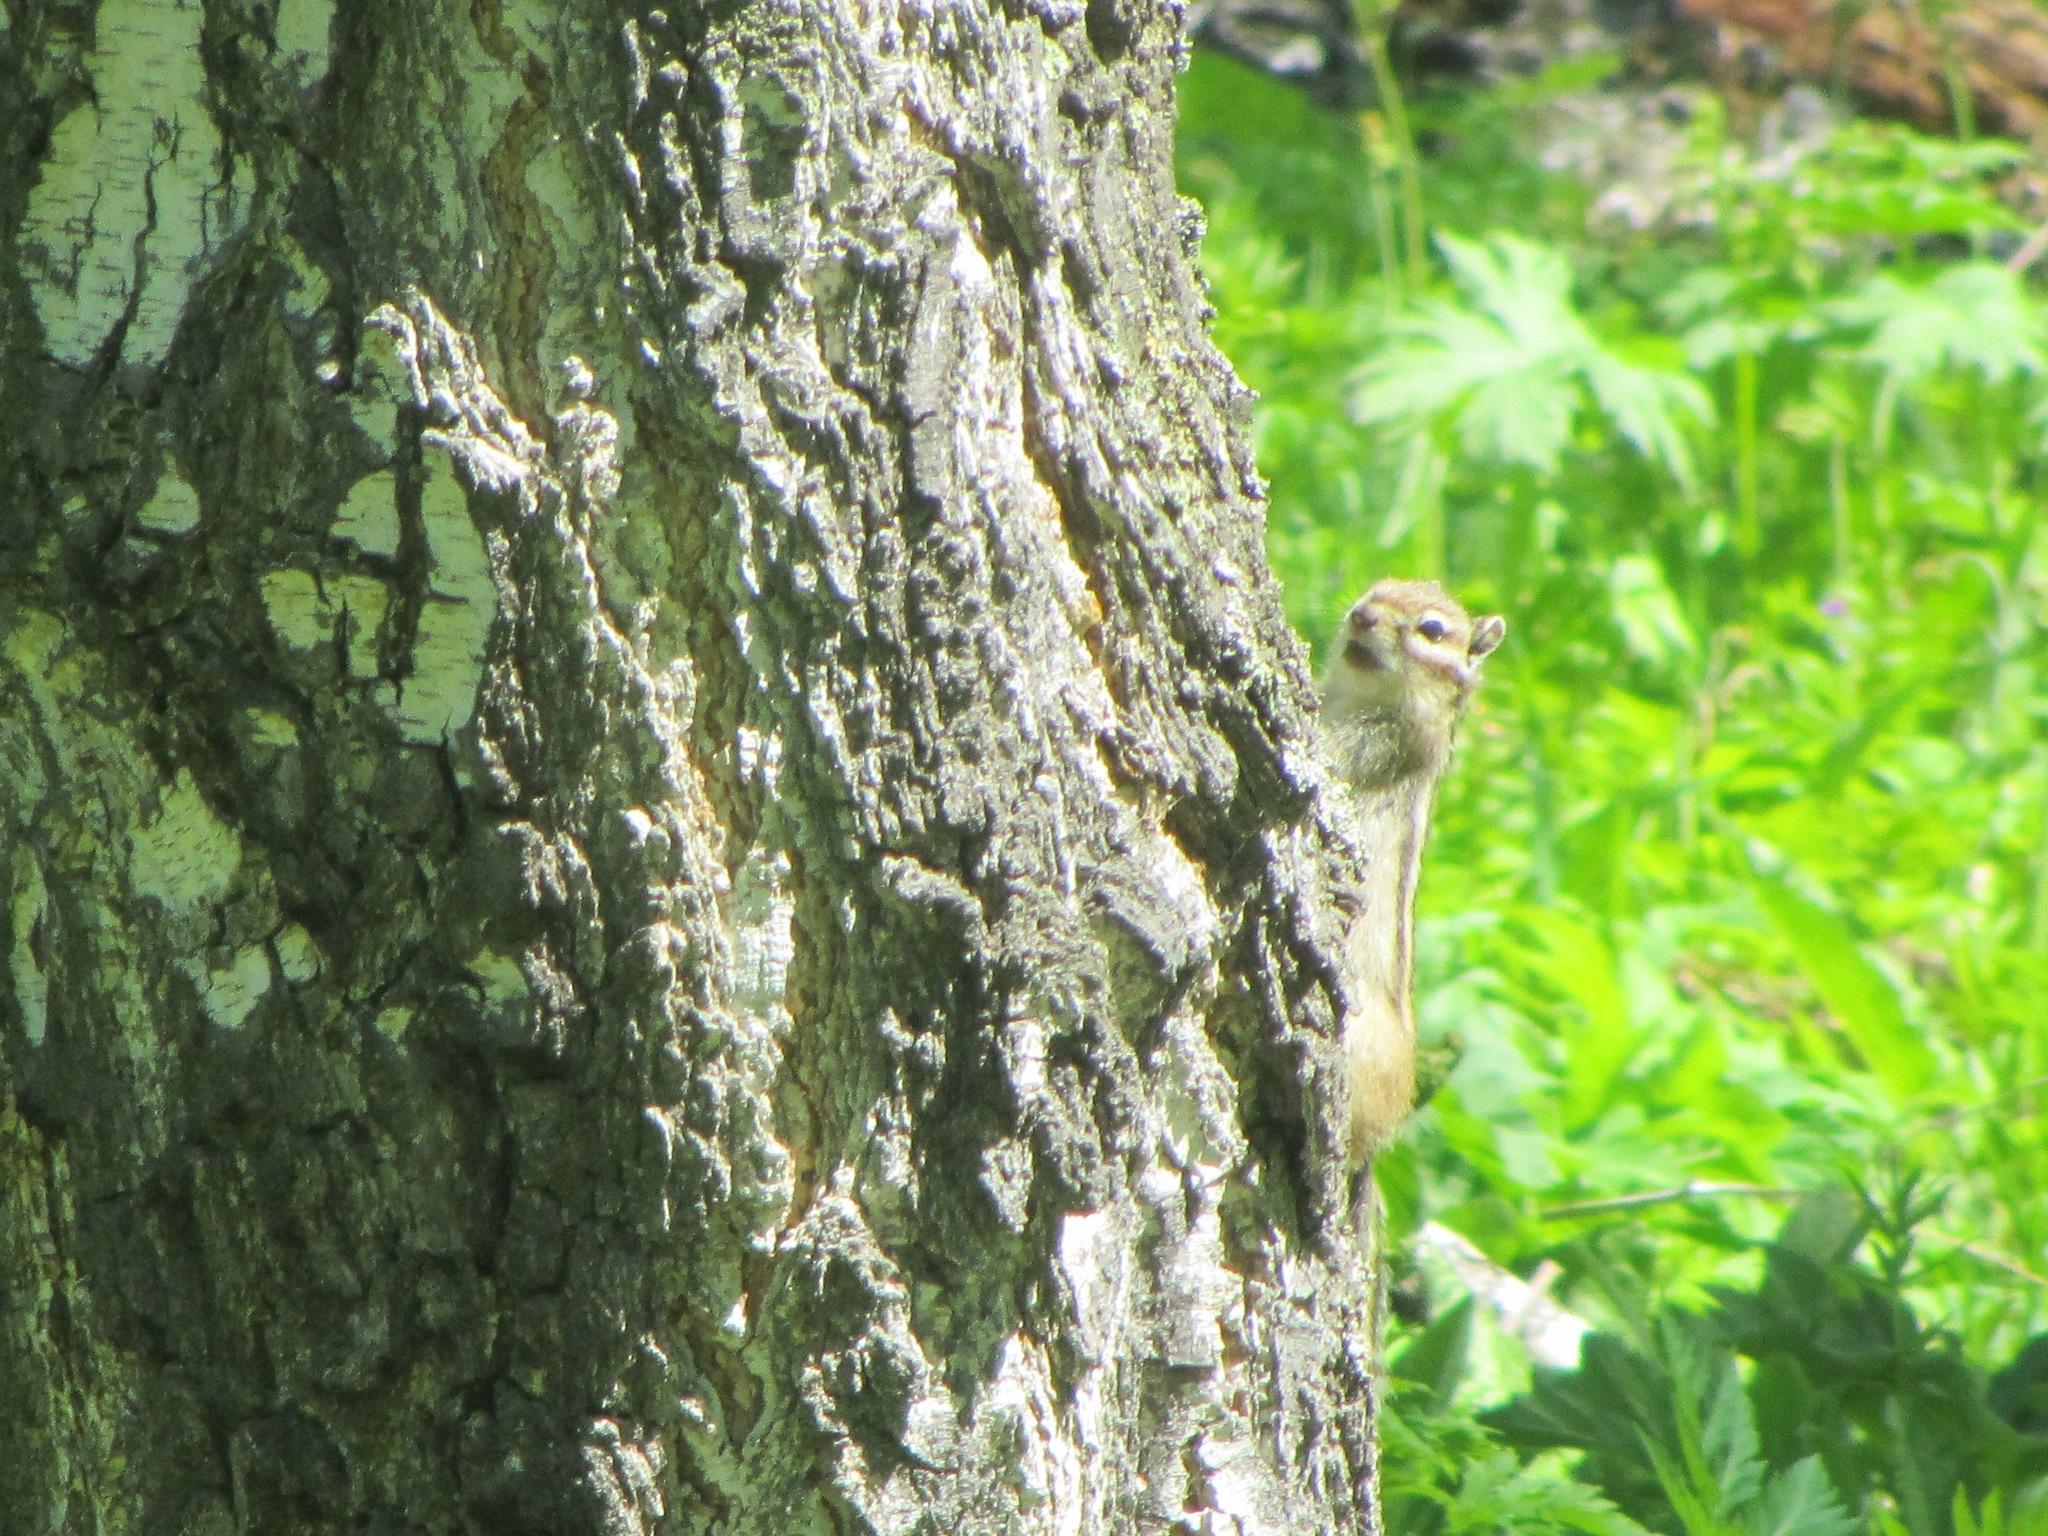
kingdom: Animalia
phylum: Chordata
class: Mammalia
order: Rodentia
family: Sciuridae
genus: Tamias
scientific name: Tamias sibiricus
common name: Siberian chipmunk
